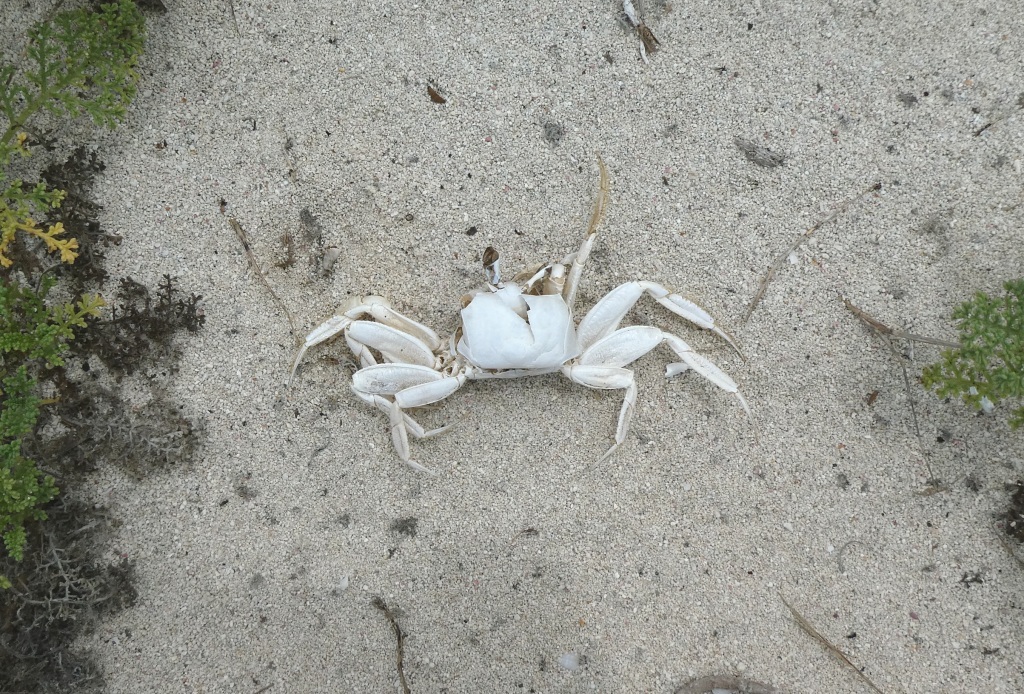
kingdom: Animalia
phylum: Arthropoda
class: Malacostraca
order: Decapoda
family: Ocypodidae
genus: Ocypode
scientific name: Ocypode quadrata
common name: Ghost crab
